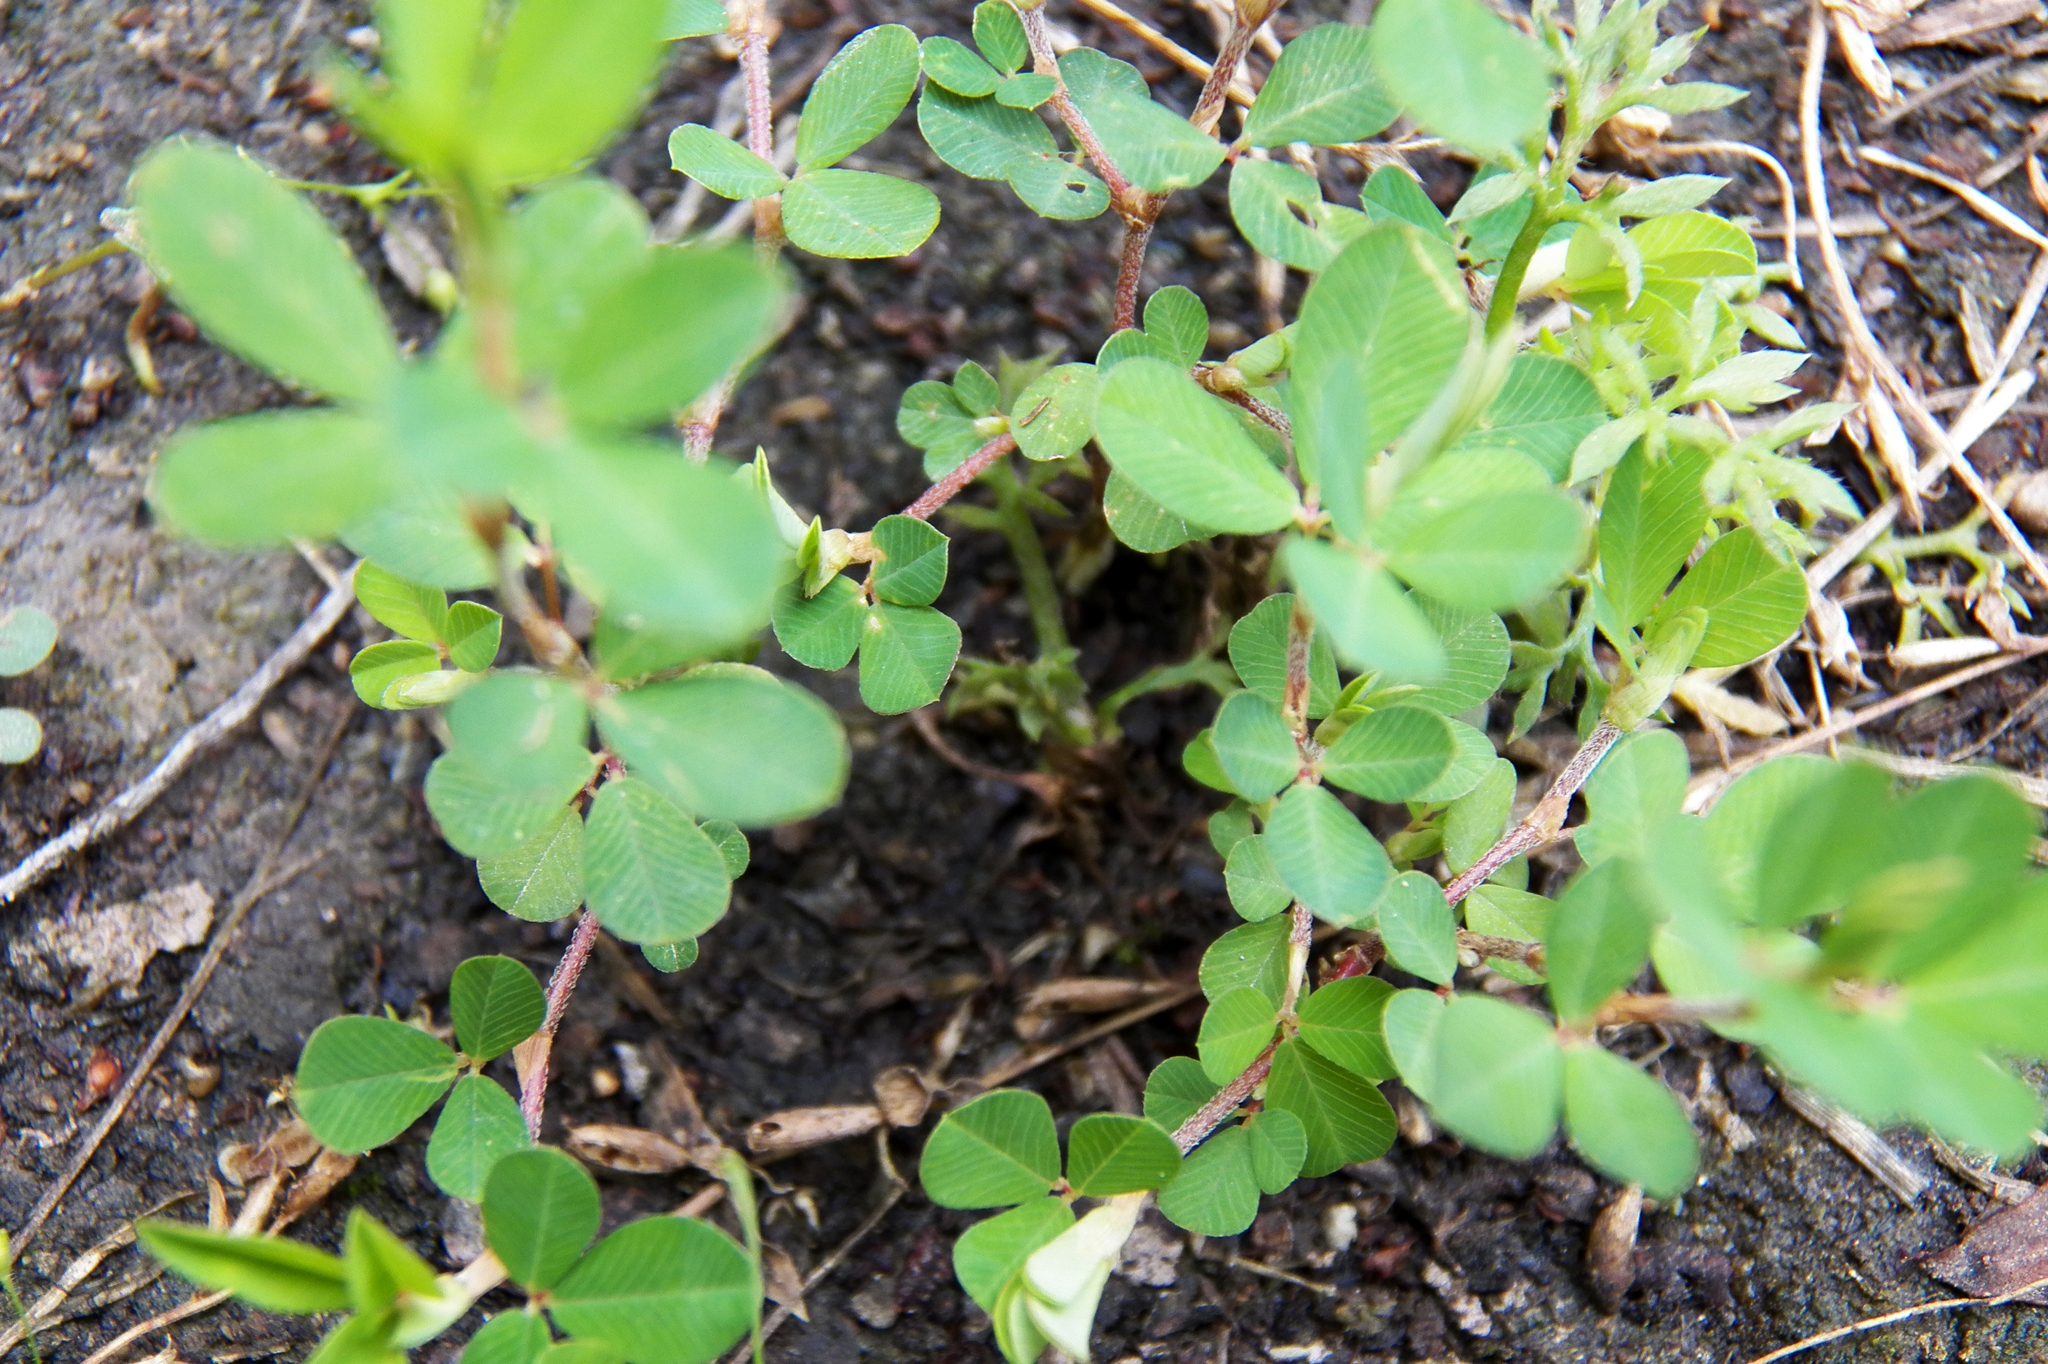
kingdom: Plantae
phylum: Tracheophyta
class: Magnoliopsida
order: Fabales
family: Fabaceae
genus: Kummerowia
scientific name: Kummerowia striata
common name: Japanese clover
